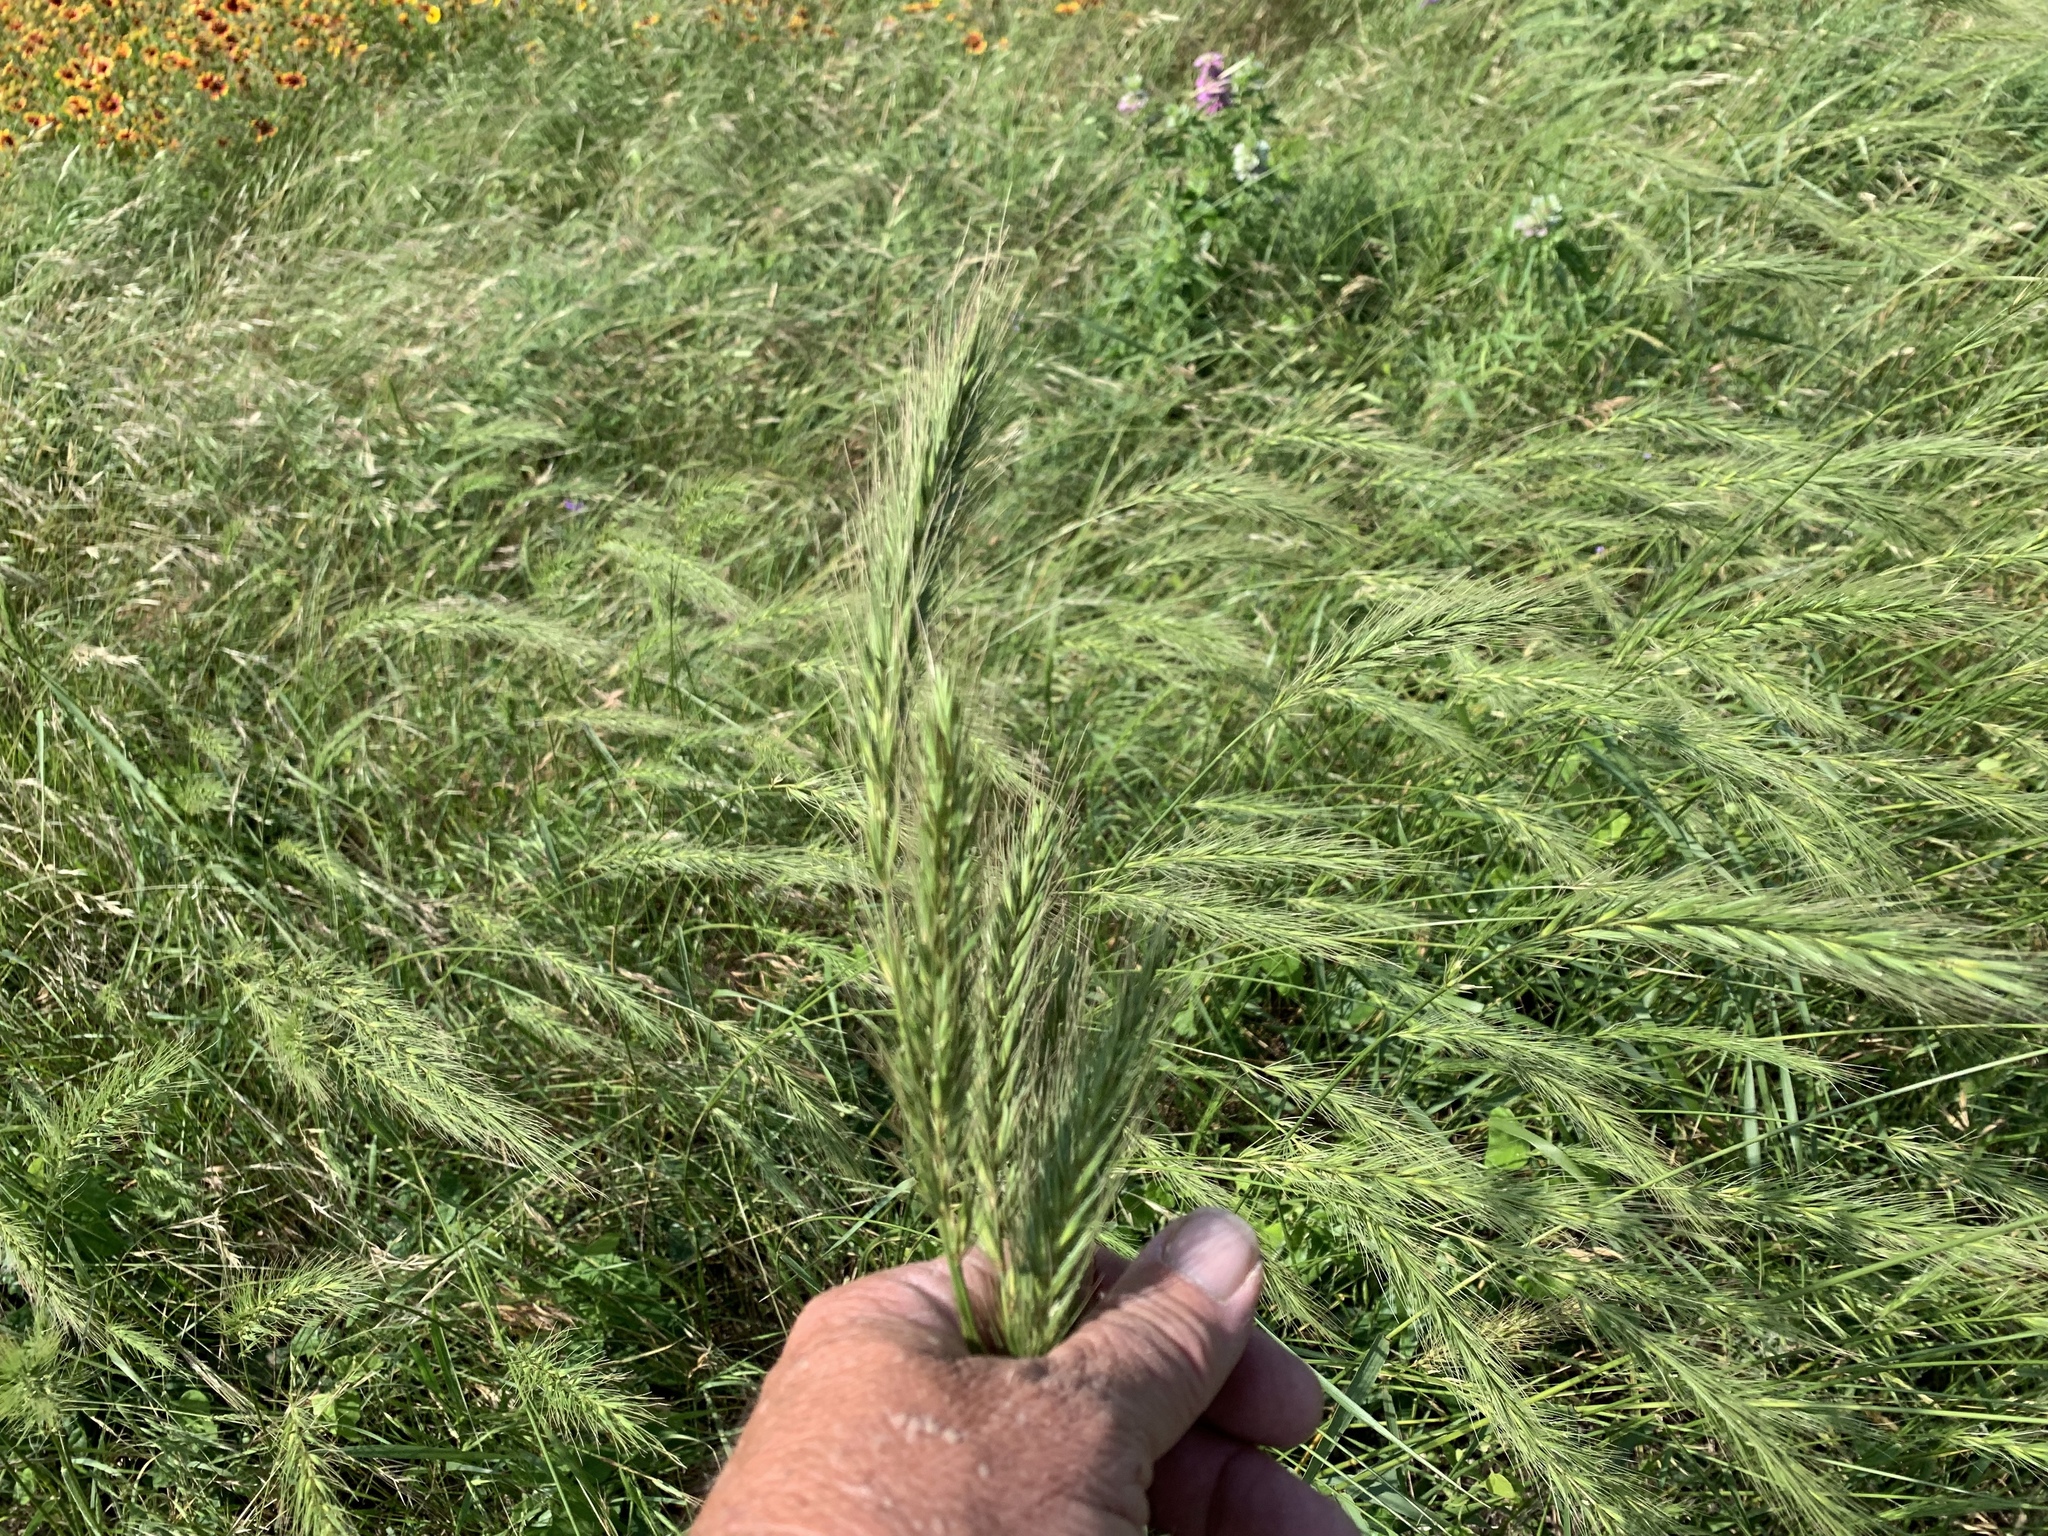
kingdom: Plantae
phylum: Tracheophyta
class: Liliopsida
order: Poales
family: Poaceae
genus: Elymus
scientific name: Elymus canadensis
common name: Canada wild rye
